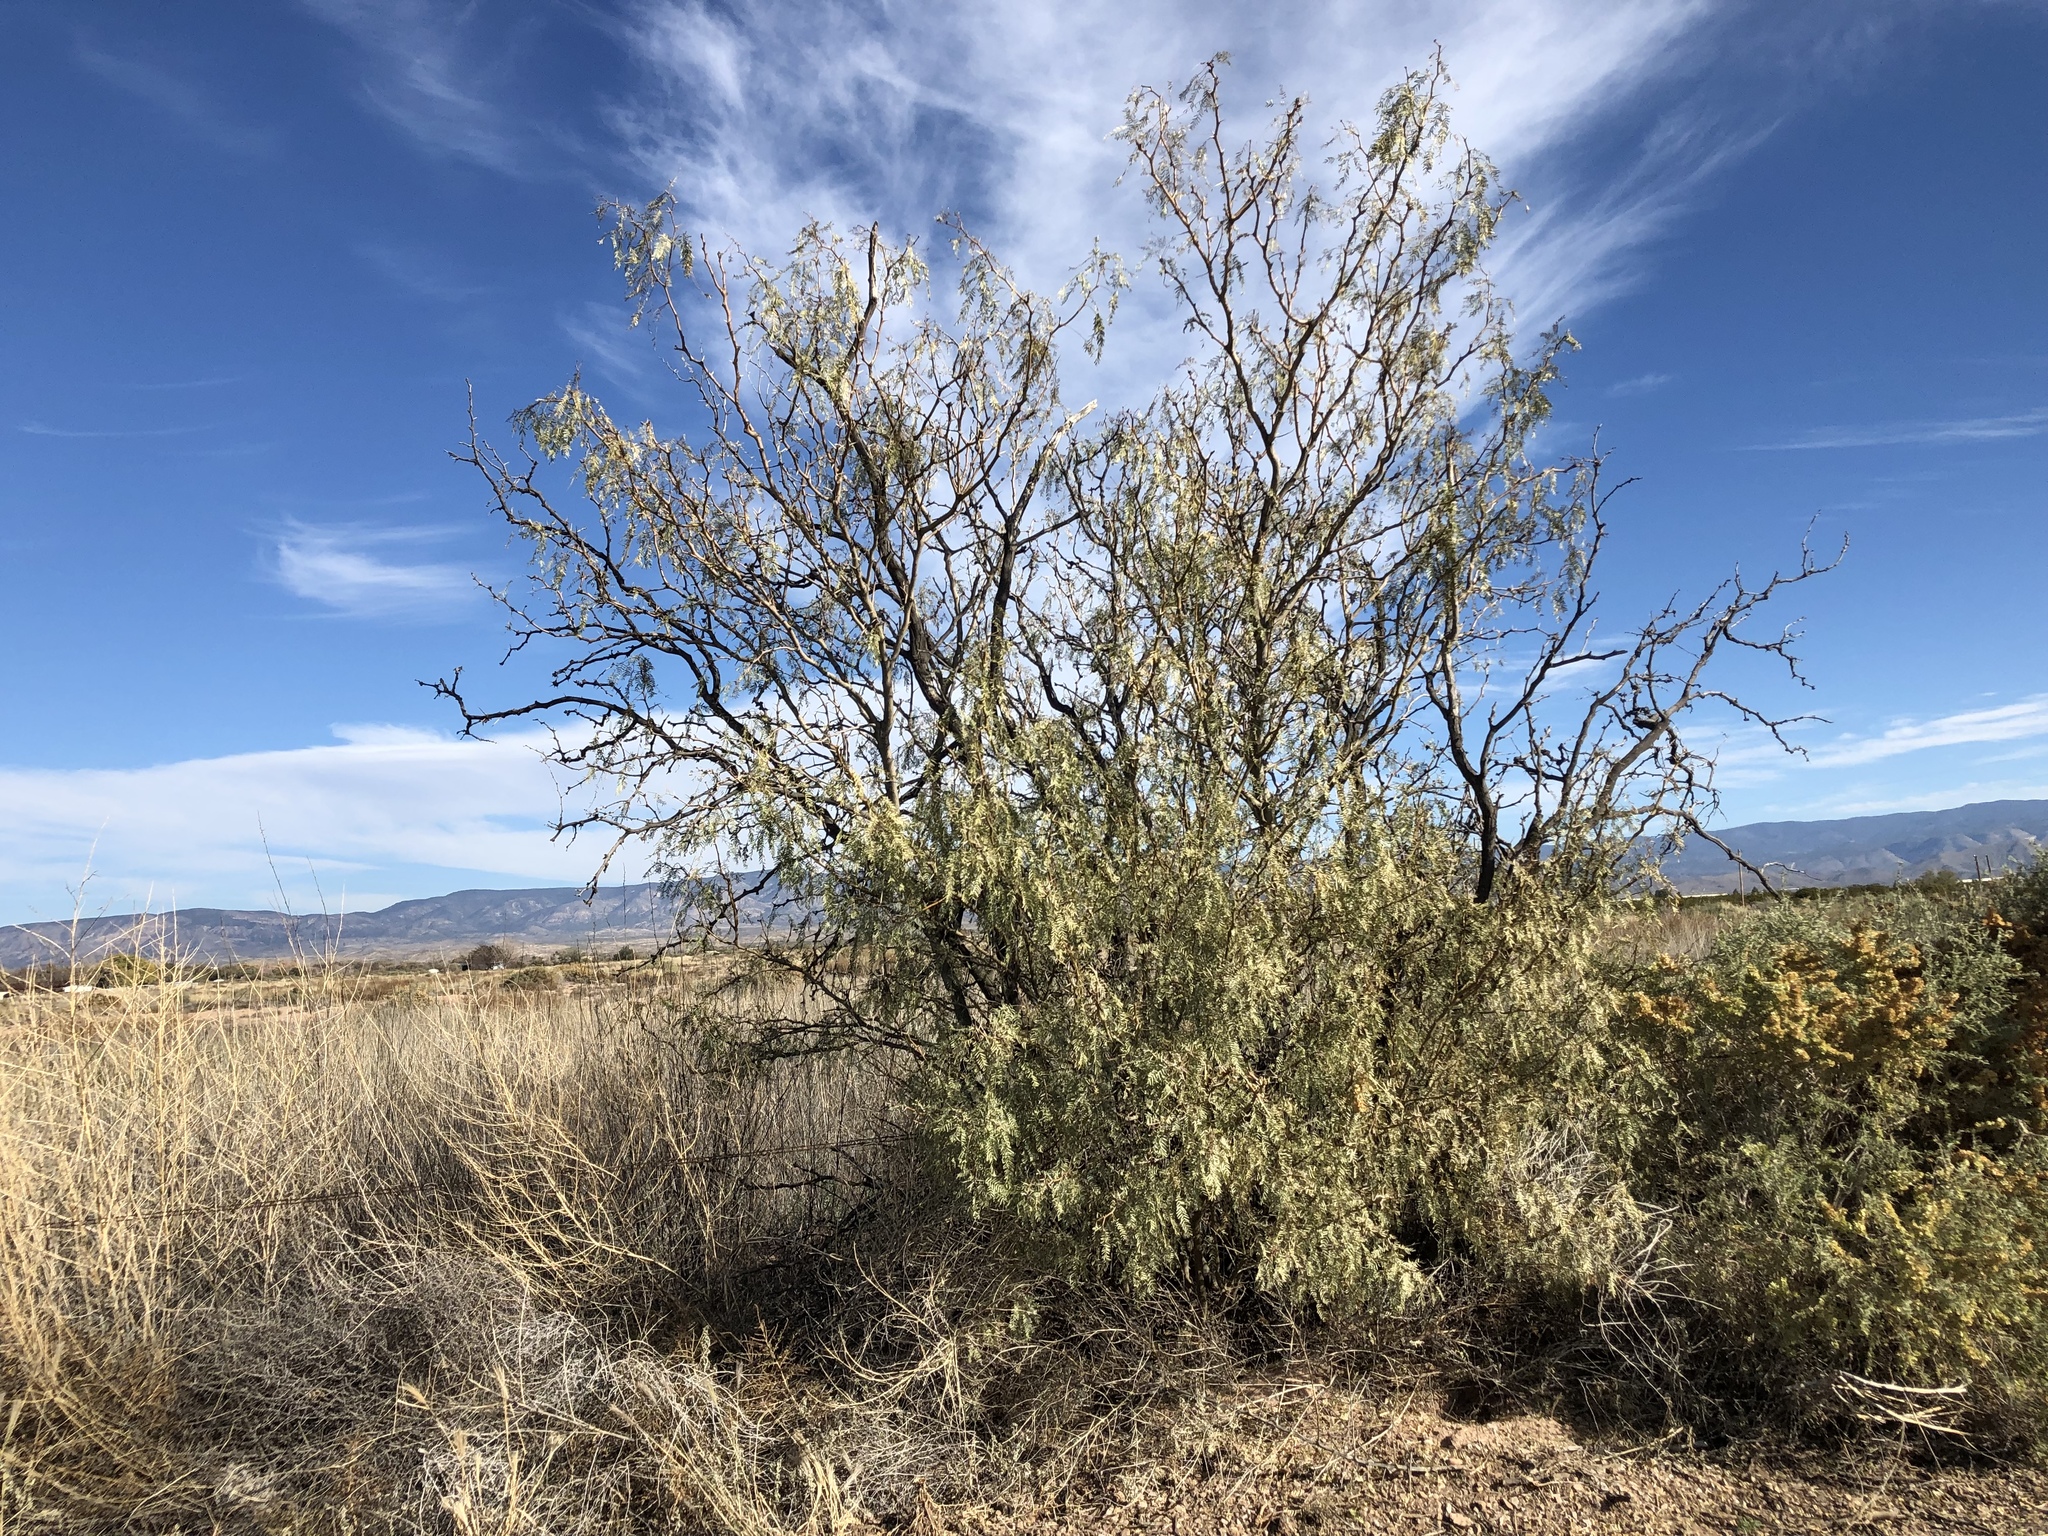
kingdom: Plantae
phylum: Tracheophyta
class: Magnoliopsida
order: Fabales
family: Fabaceae
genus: Prosopis
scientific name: Prosopis glandulosa
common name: Honey mesquite
